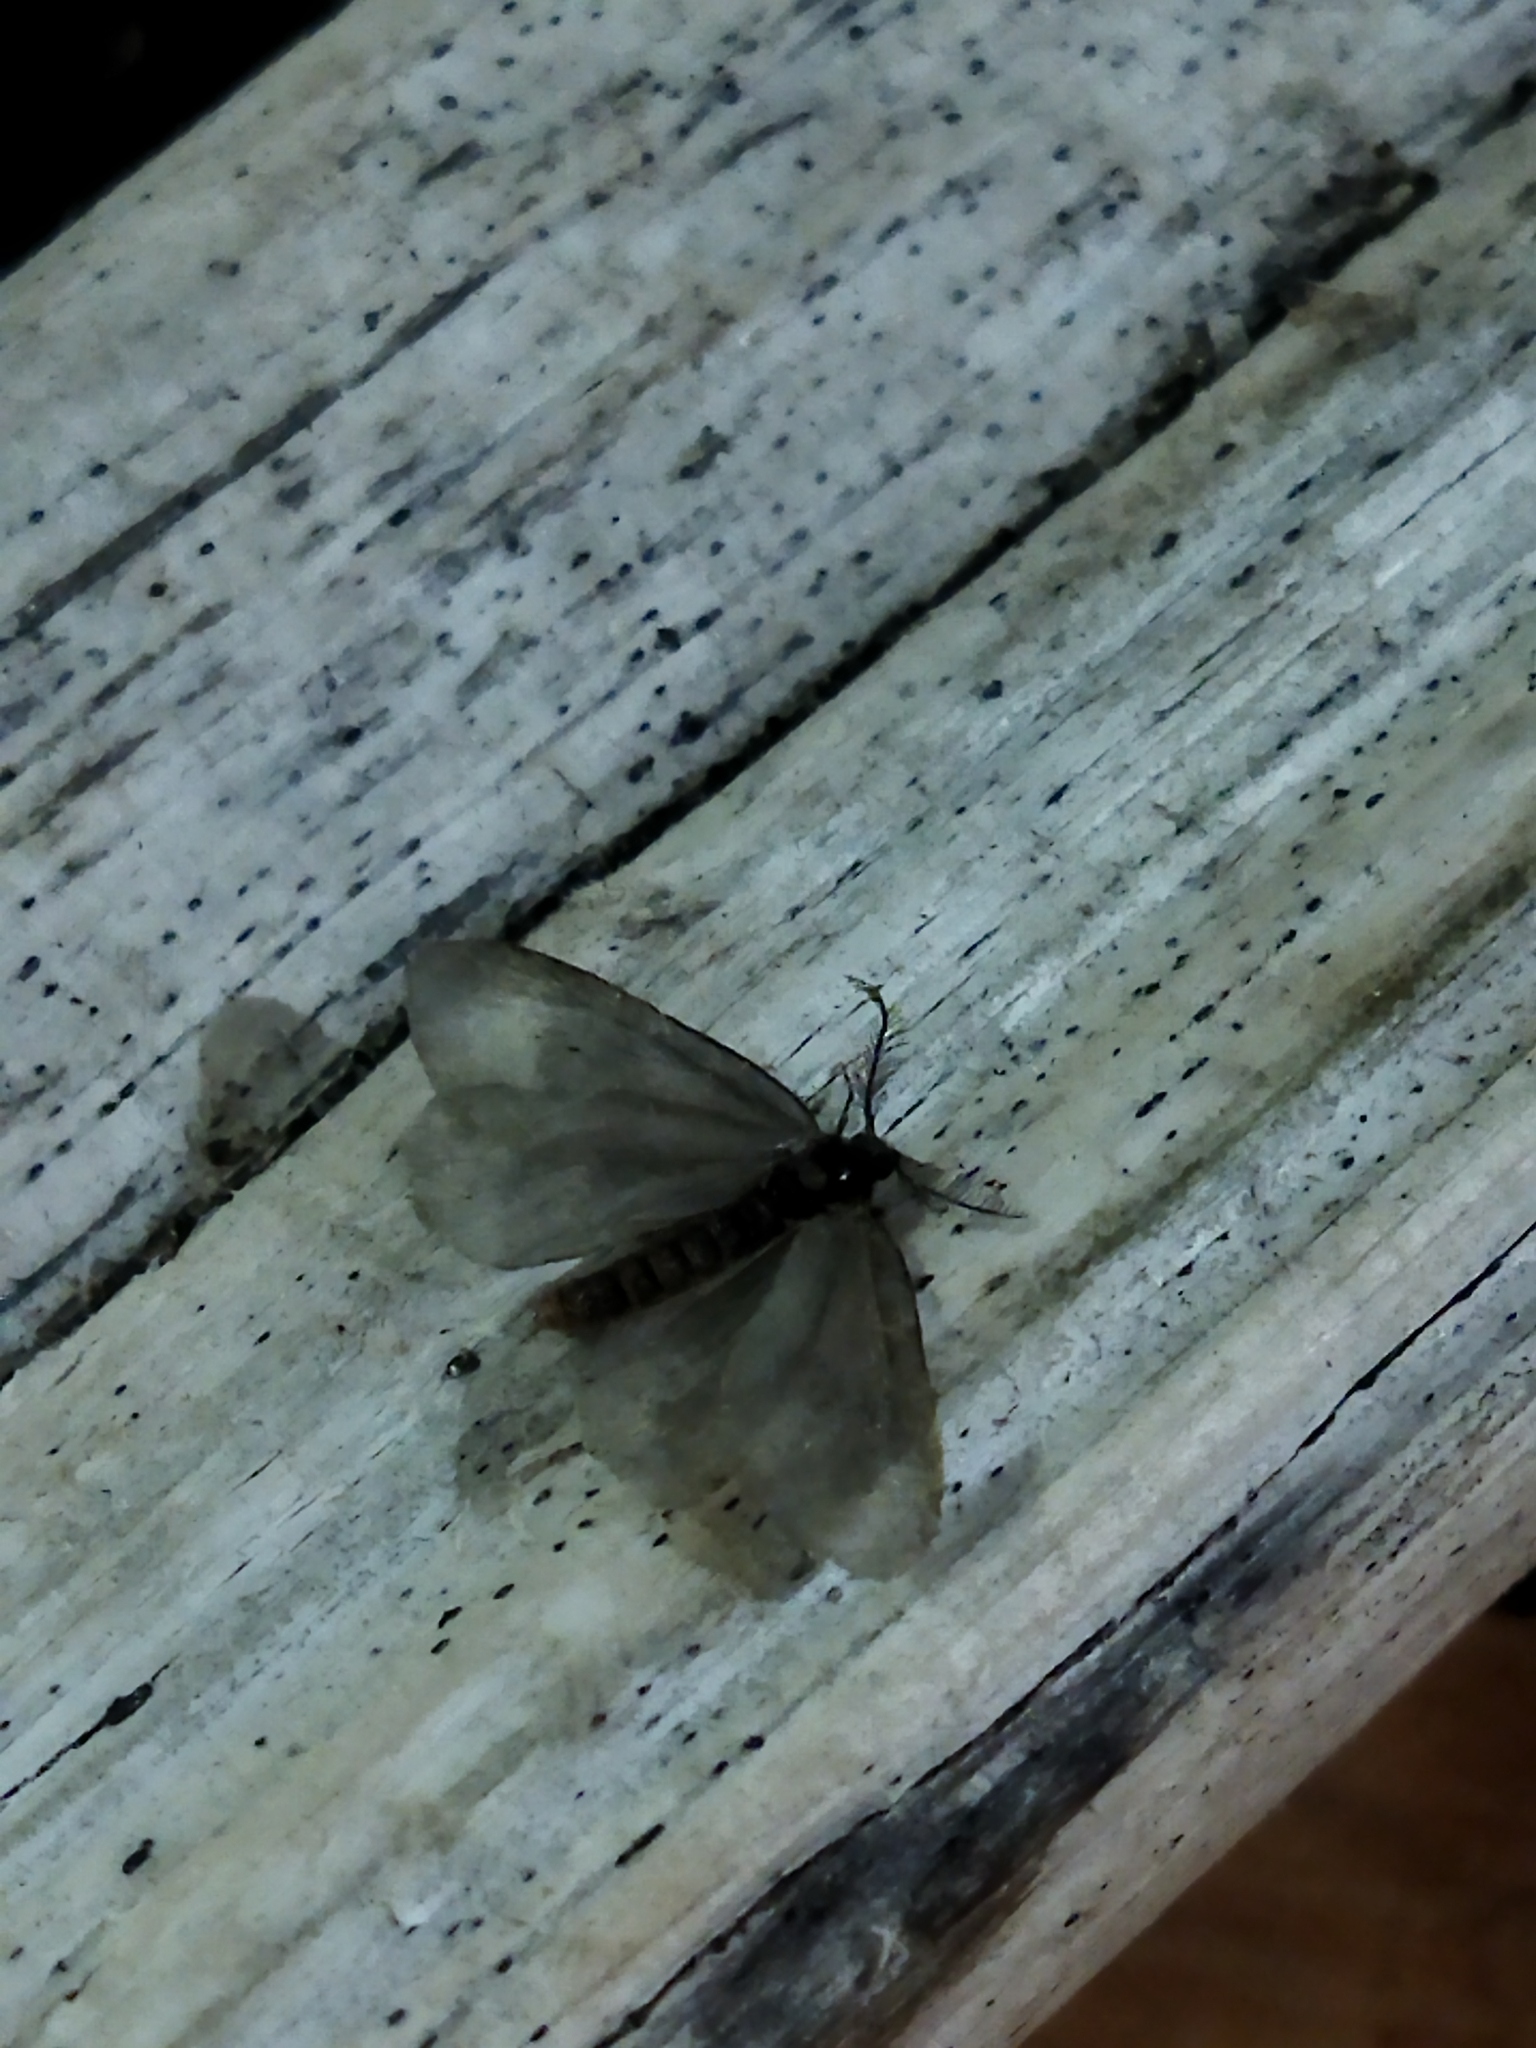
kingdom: Animalia
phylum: Arthropoda
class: Insecta
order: Lepidoptera
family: Psychidae
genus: Rebelia
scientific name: Rebelia perlucidella
